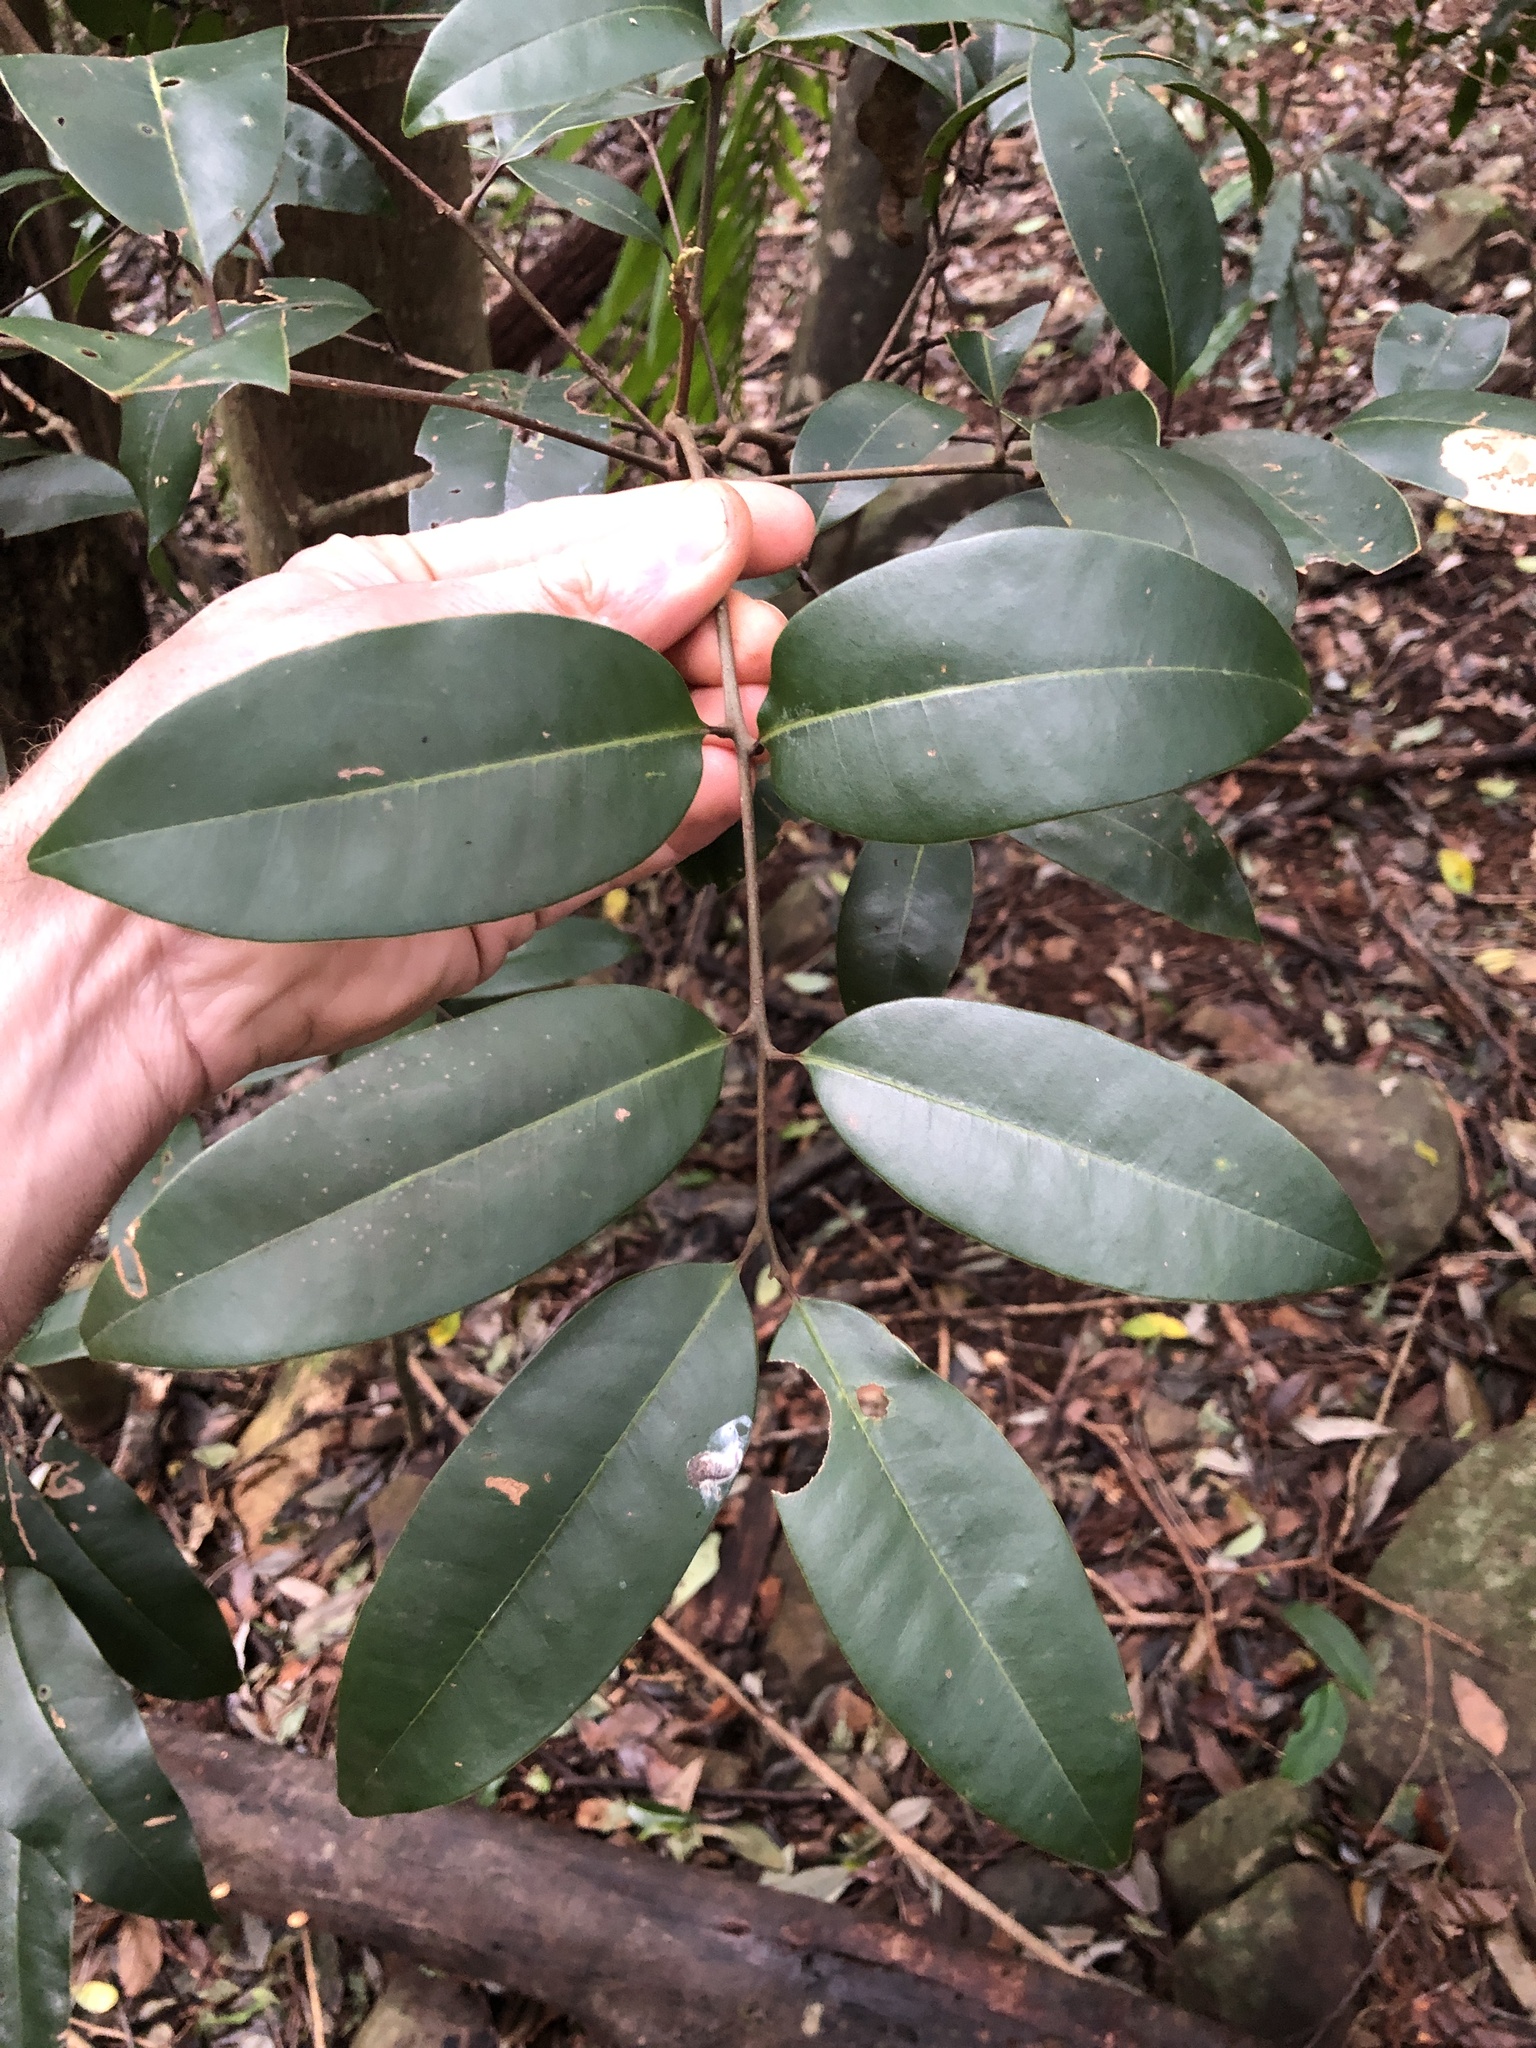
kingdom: Plantae
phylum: Tracheophyta
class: Magnoliopsida
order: Sapindales
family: Sapindaceae
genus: Mischocarpus
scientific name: Mischocarpus pyriformis
